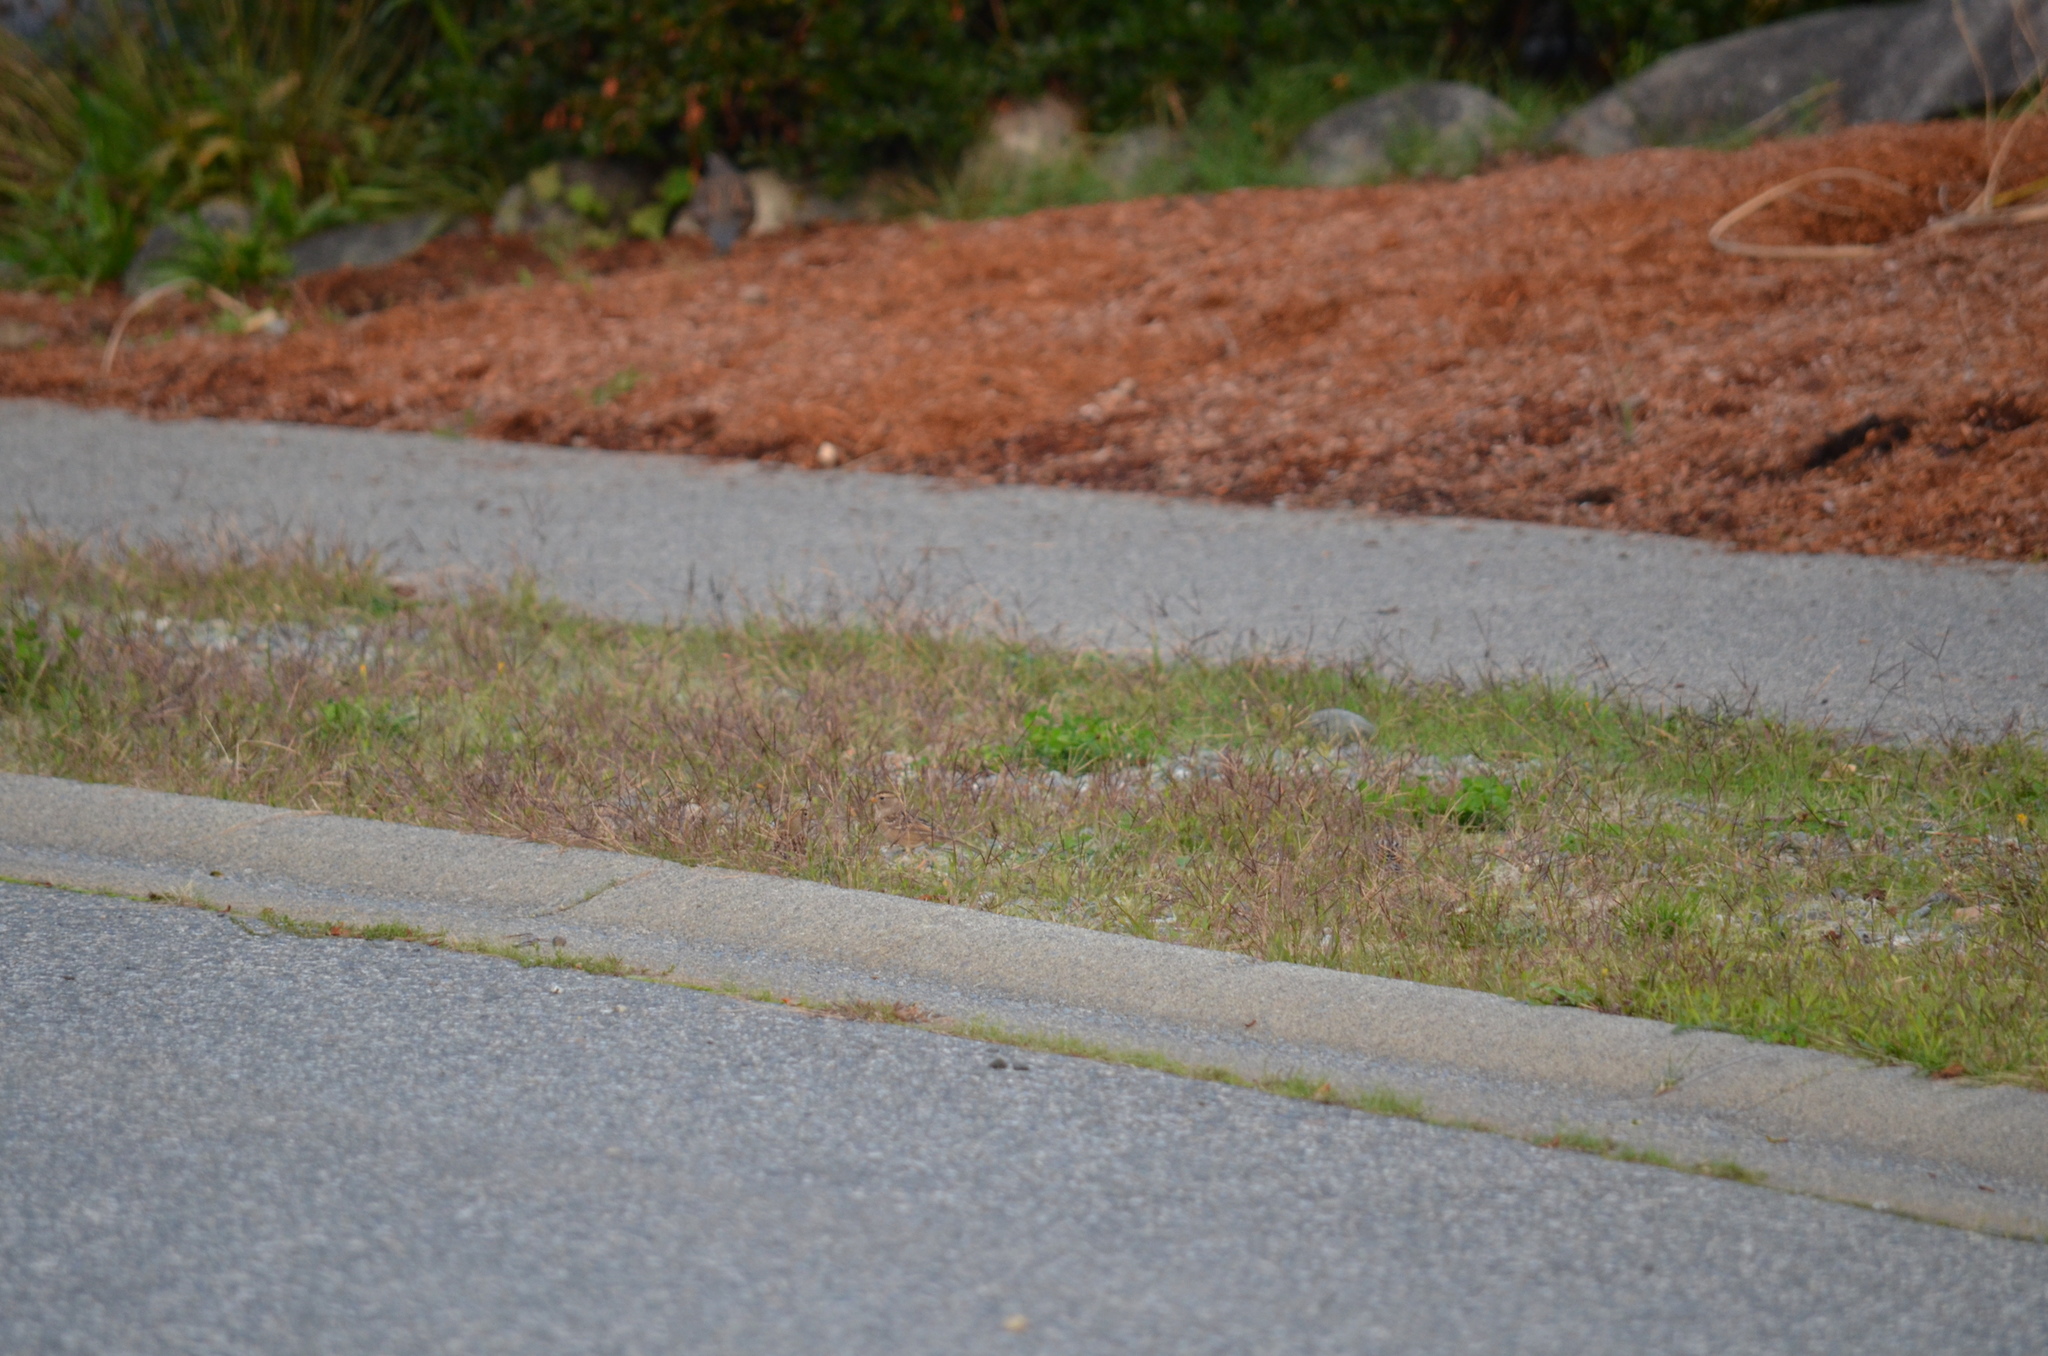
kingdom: Animalia
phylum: Chordata
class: Aves
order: Passeriformes
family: Passerellidae
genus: Zonotrichia
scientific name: Zonotrichia leucophrys
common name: White-crowned sparrow
